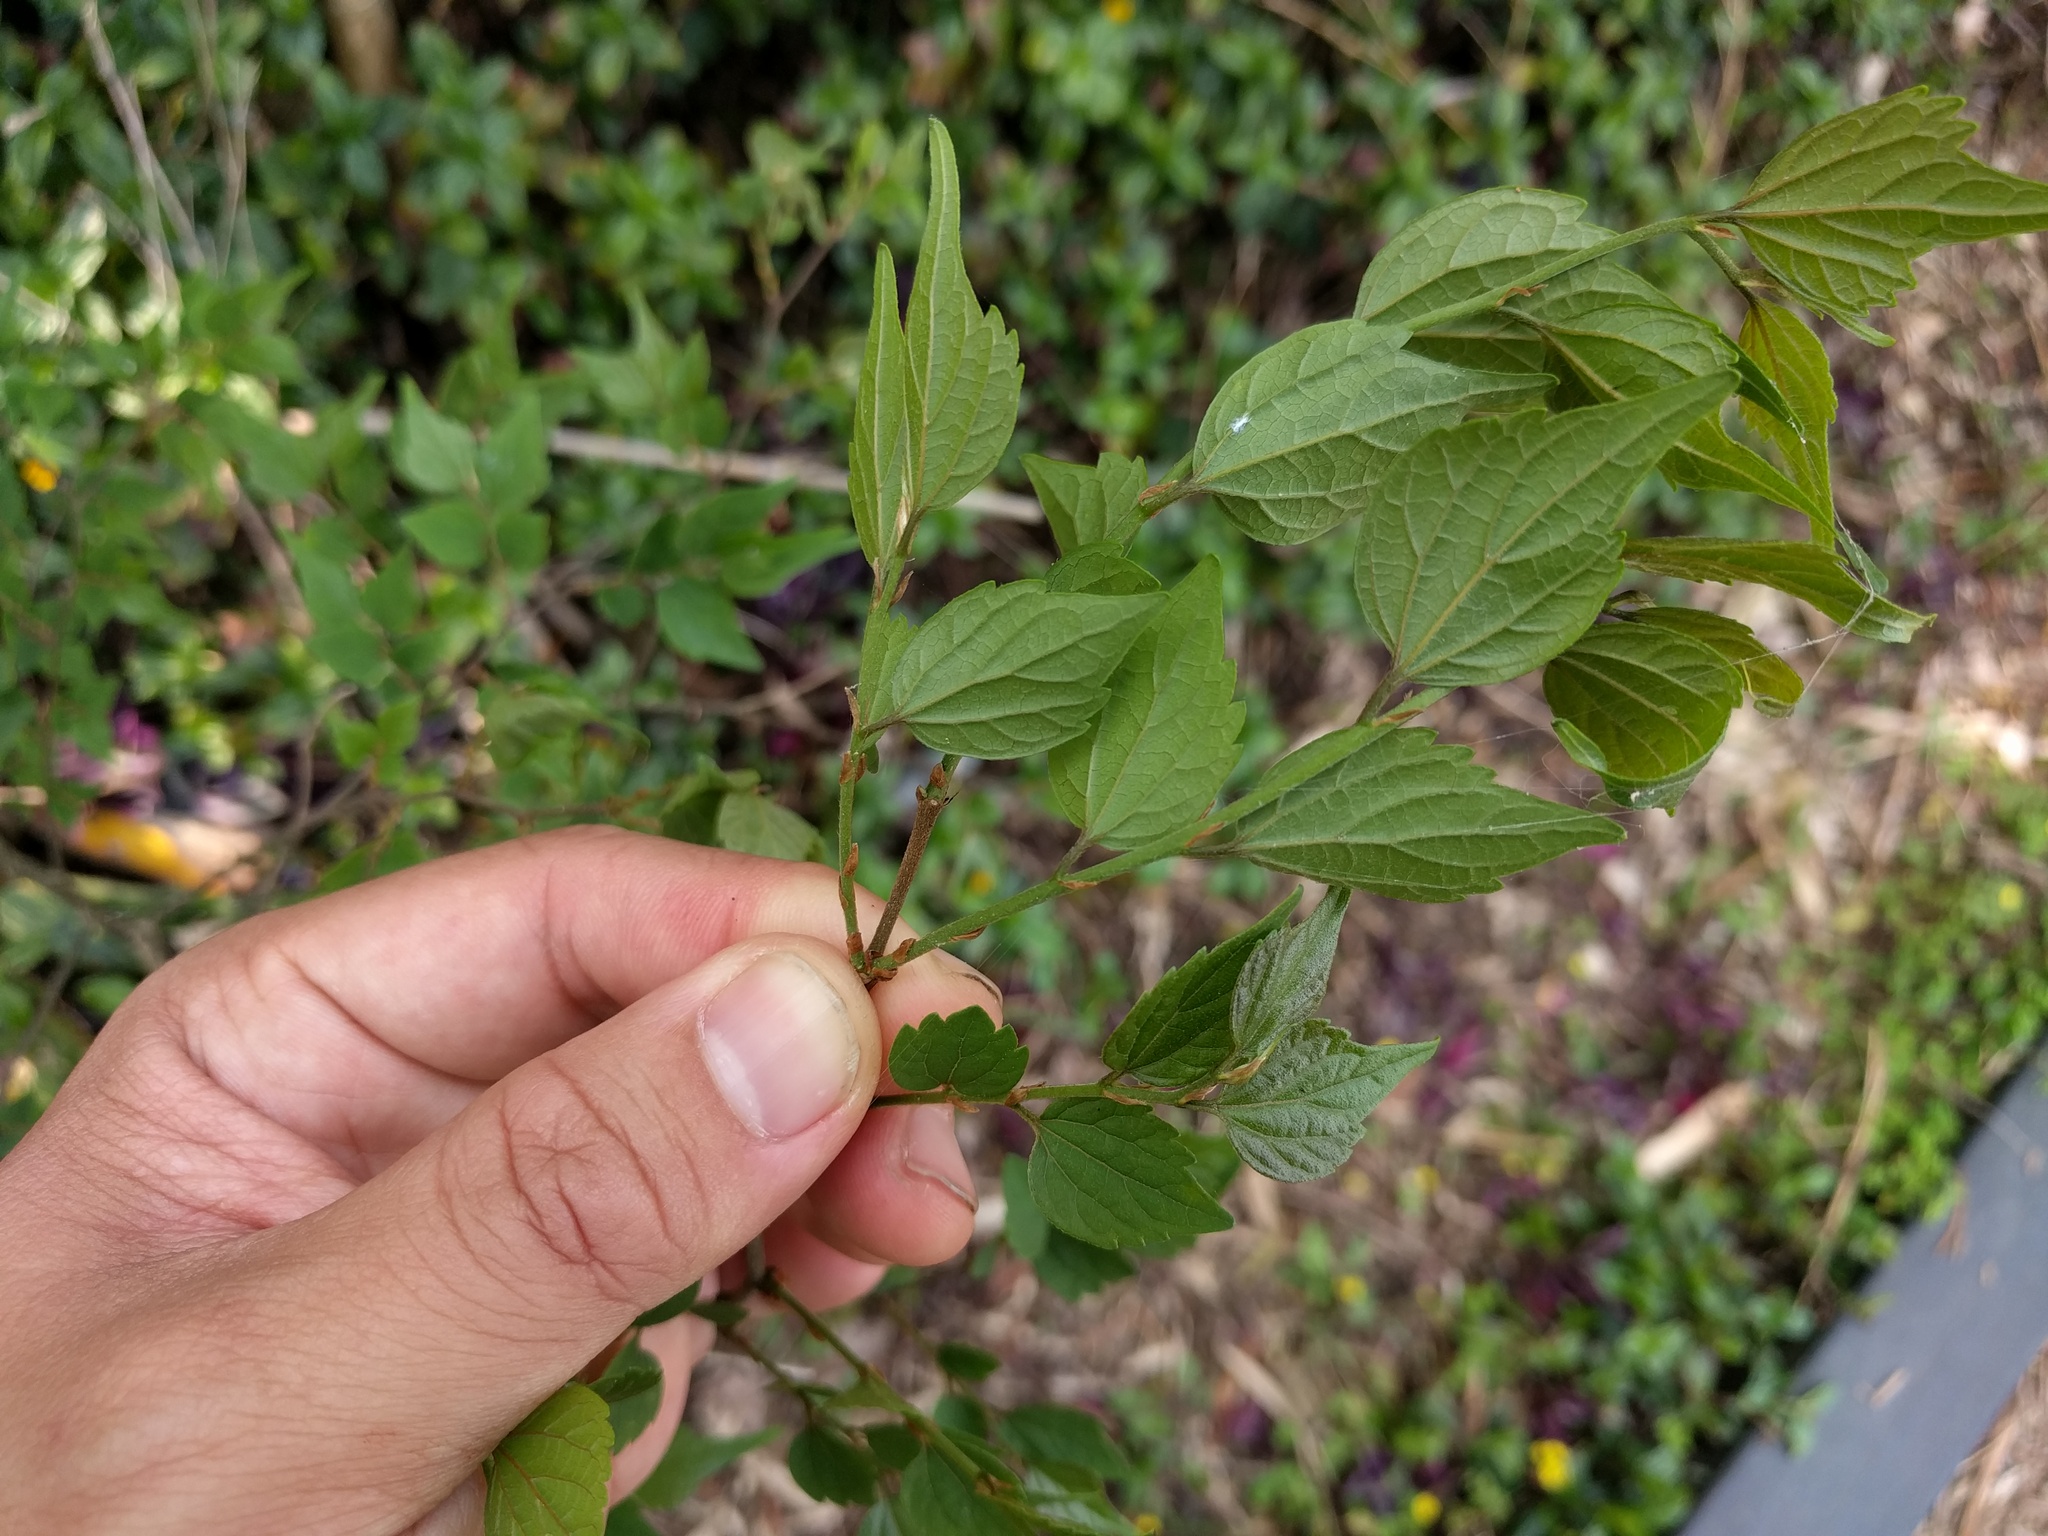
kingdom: Plantae
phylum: Tracheophyta
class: Magnoliopsida
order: Rosales
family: Cannabaceae
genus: Celtis
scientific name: Celtis biondii
